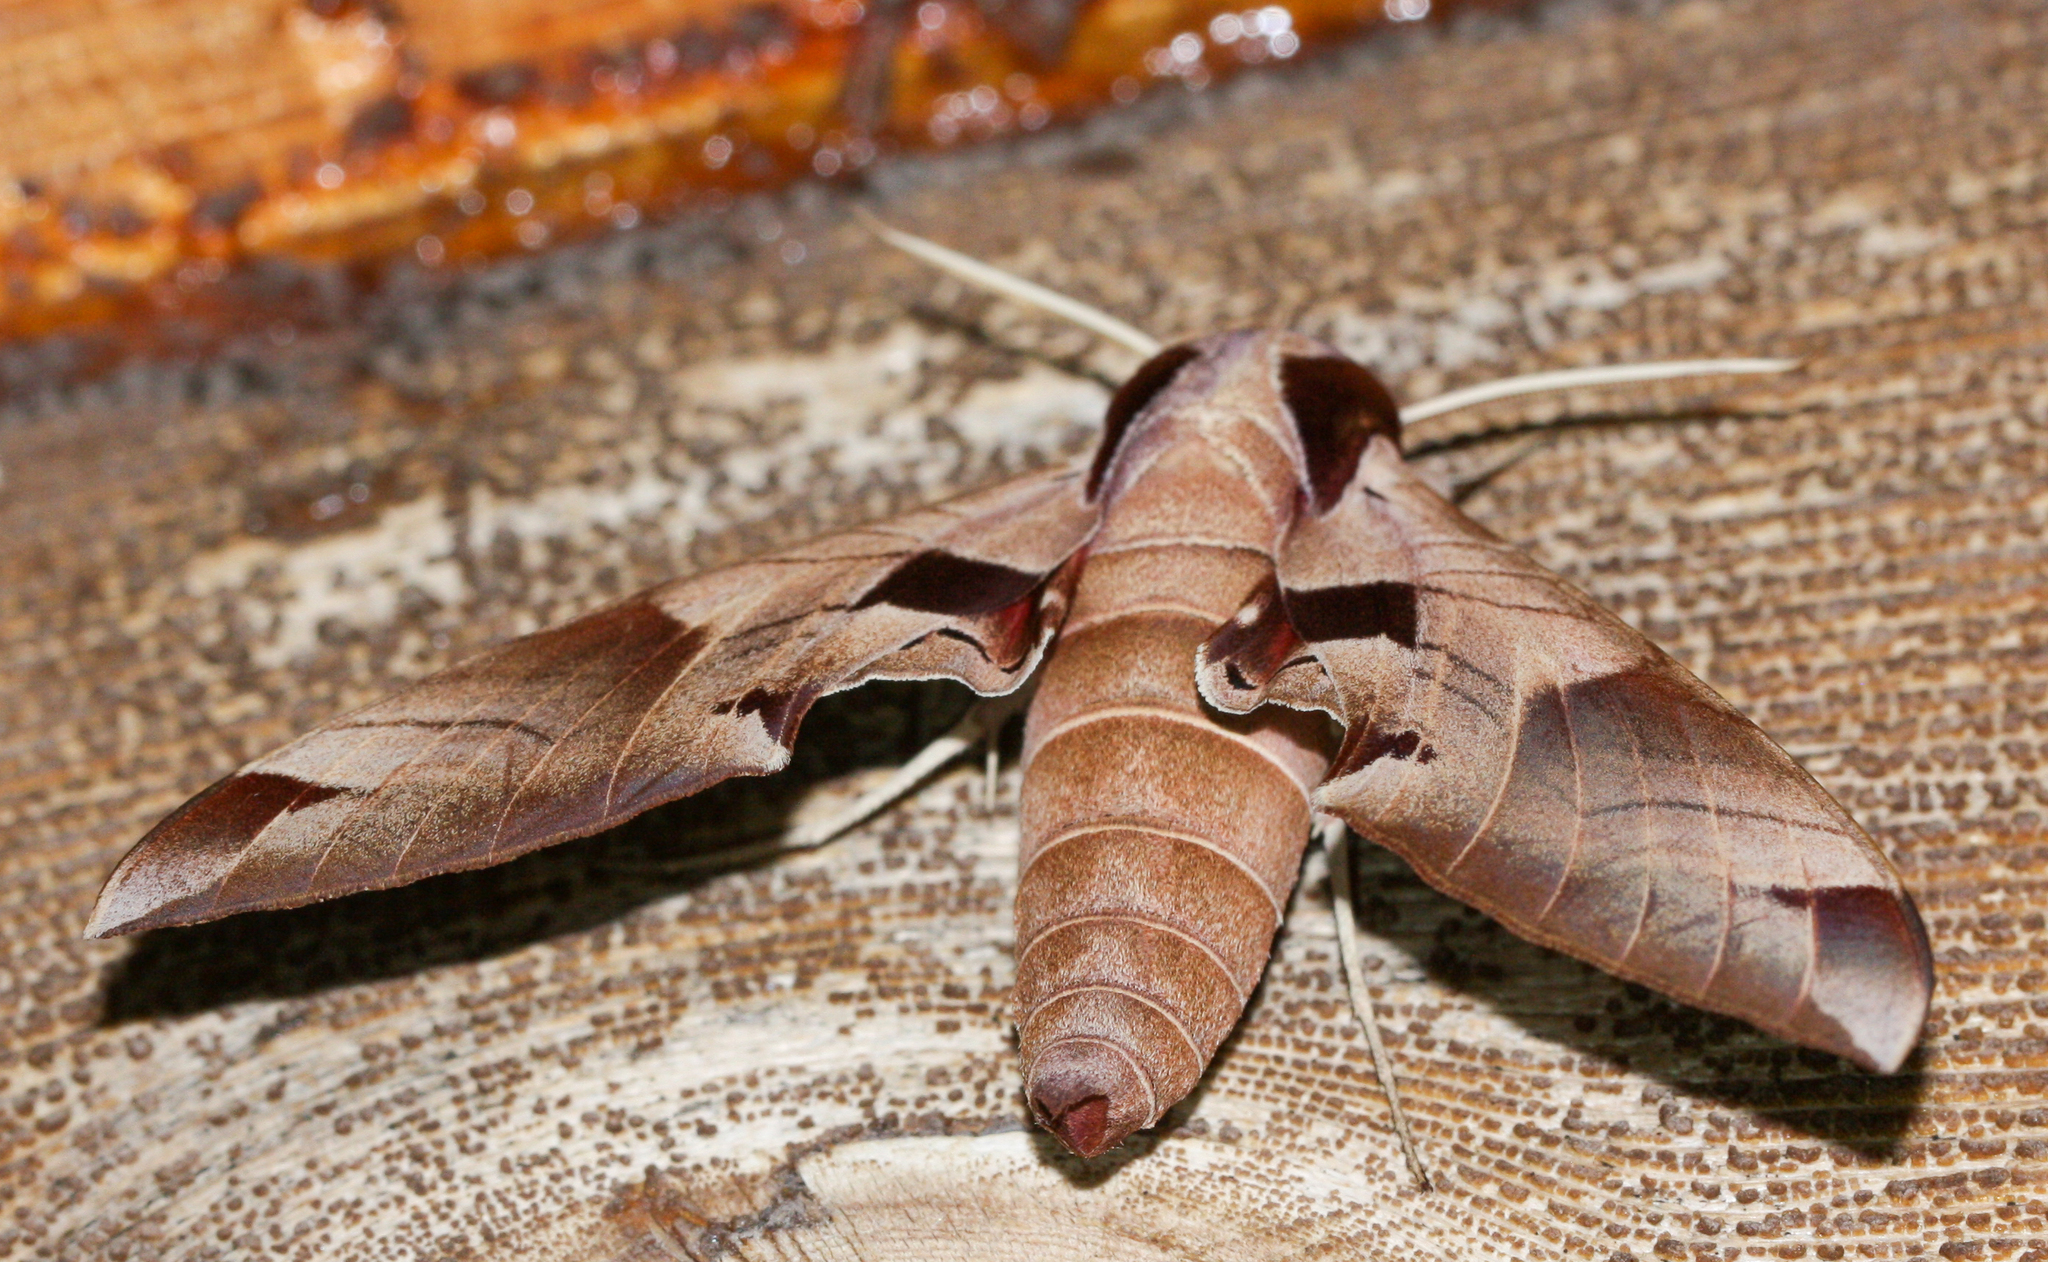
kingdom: Animalia
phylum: Arthropoda
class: Insecta
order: Lepidoptera
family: Sphingidae
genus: Eumorpha
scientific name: Eumorpha achemon
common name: Achemon sphinx
